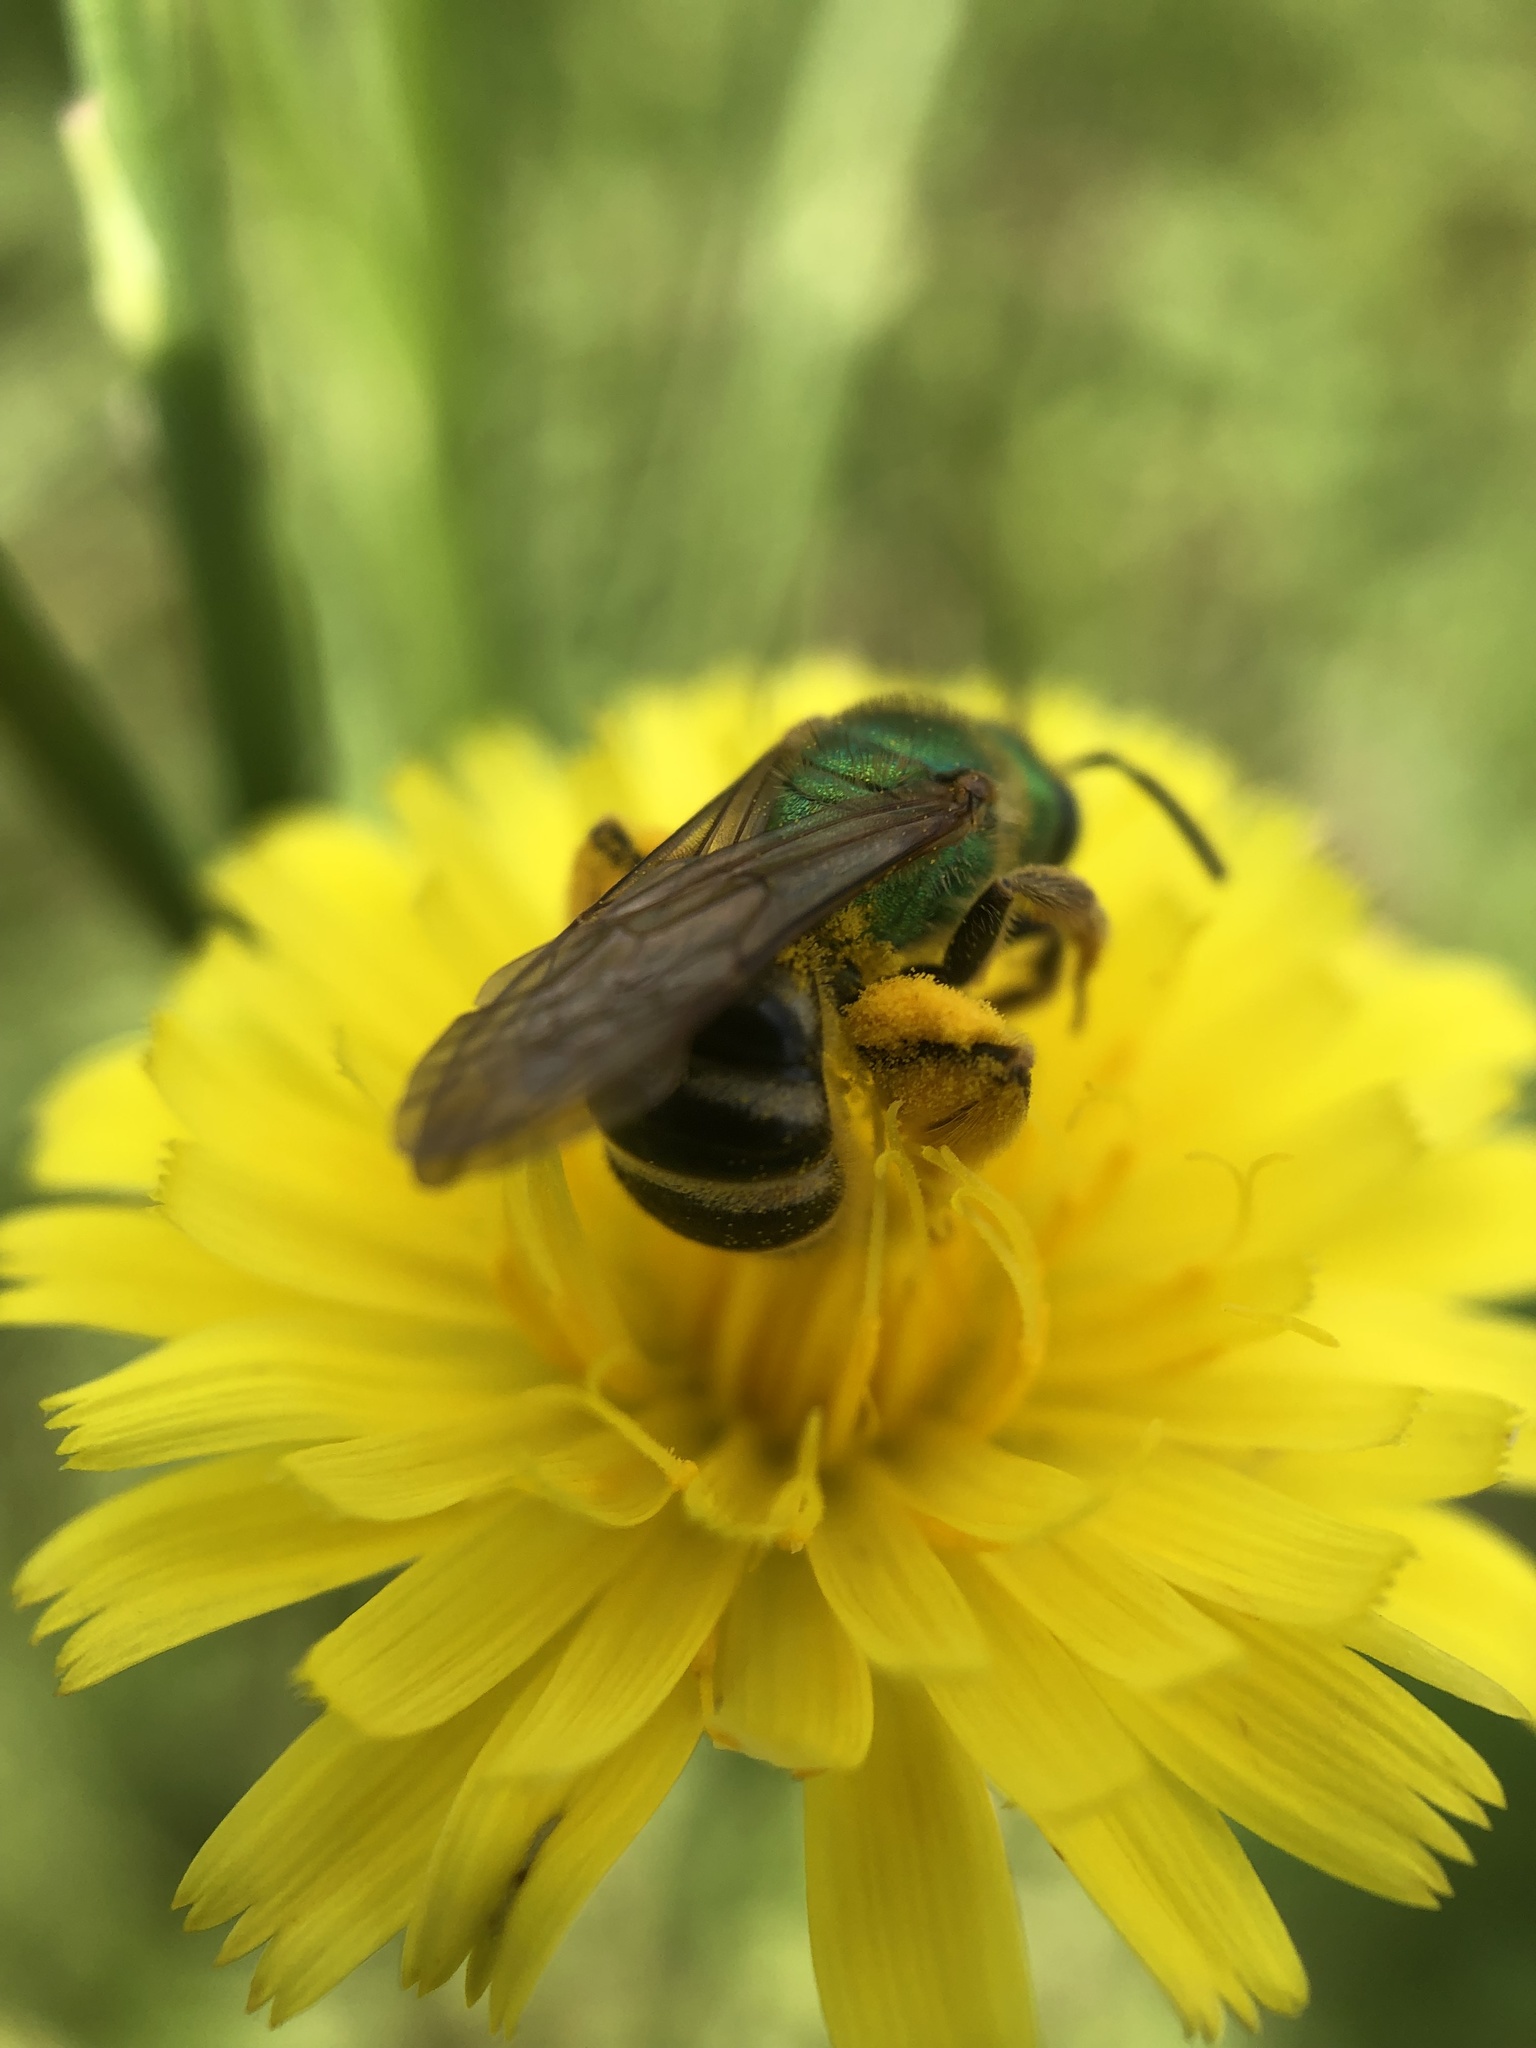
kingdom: Animalia
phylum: Arthropoda
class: Insecta
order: Hymenoptera
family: Halictidae
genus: Agapostemon
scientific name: Agapostemon virescens
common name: Bicolored striped sweat bee
